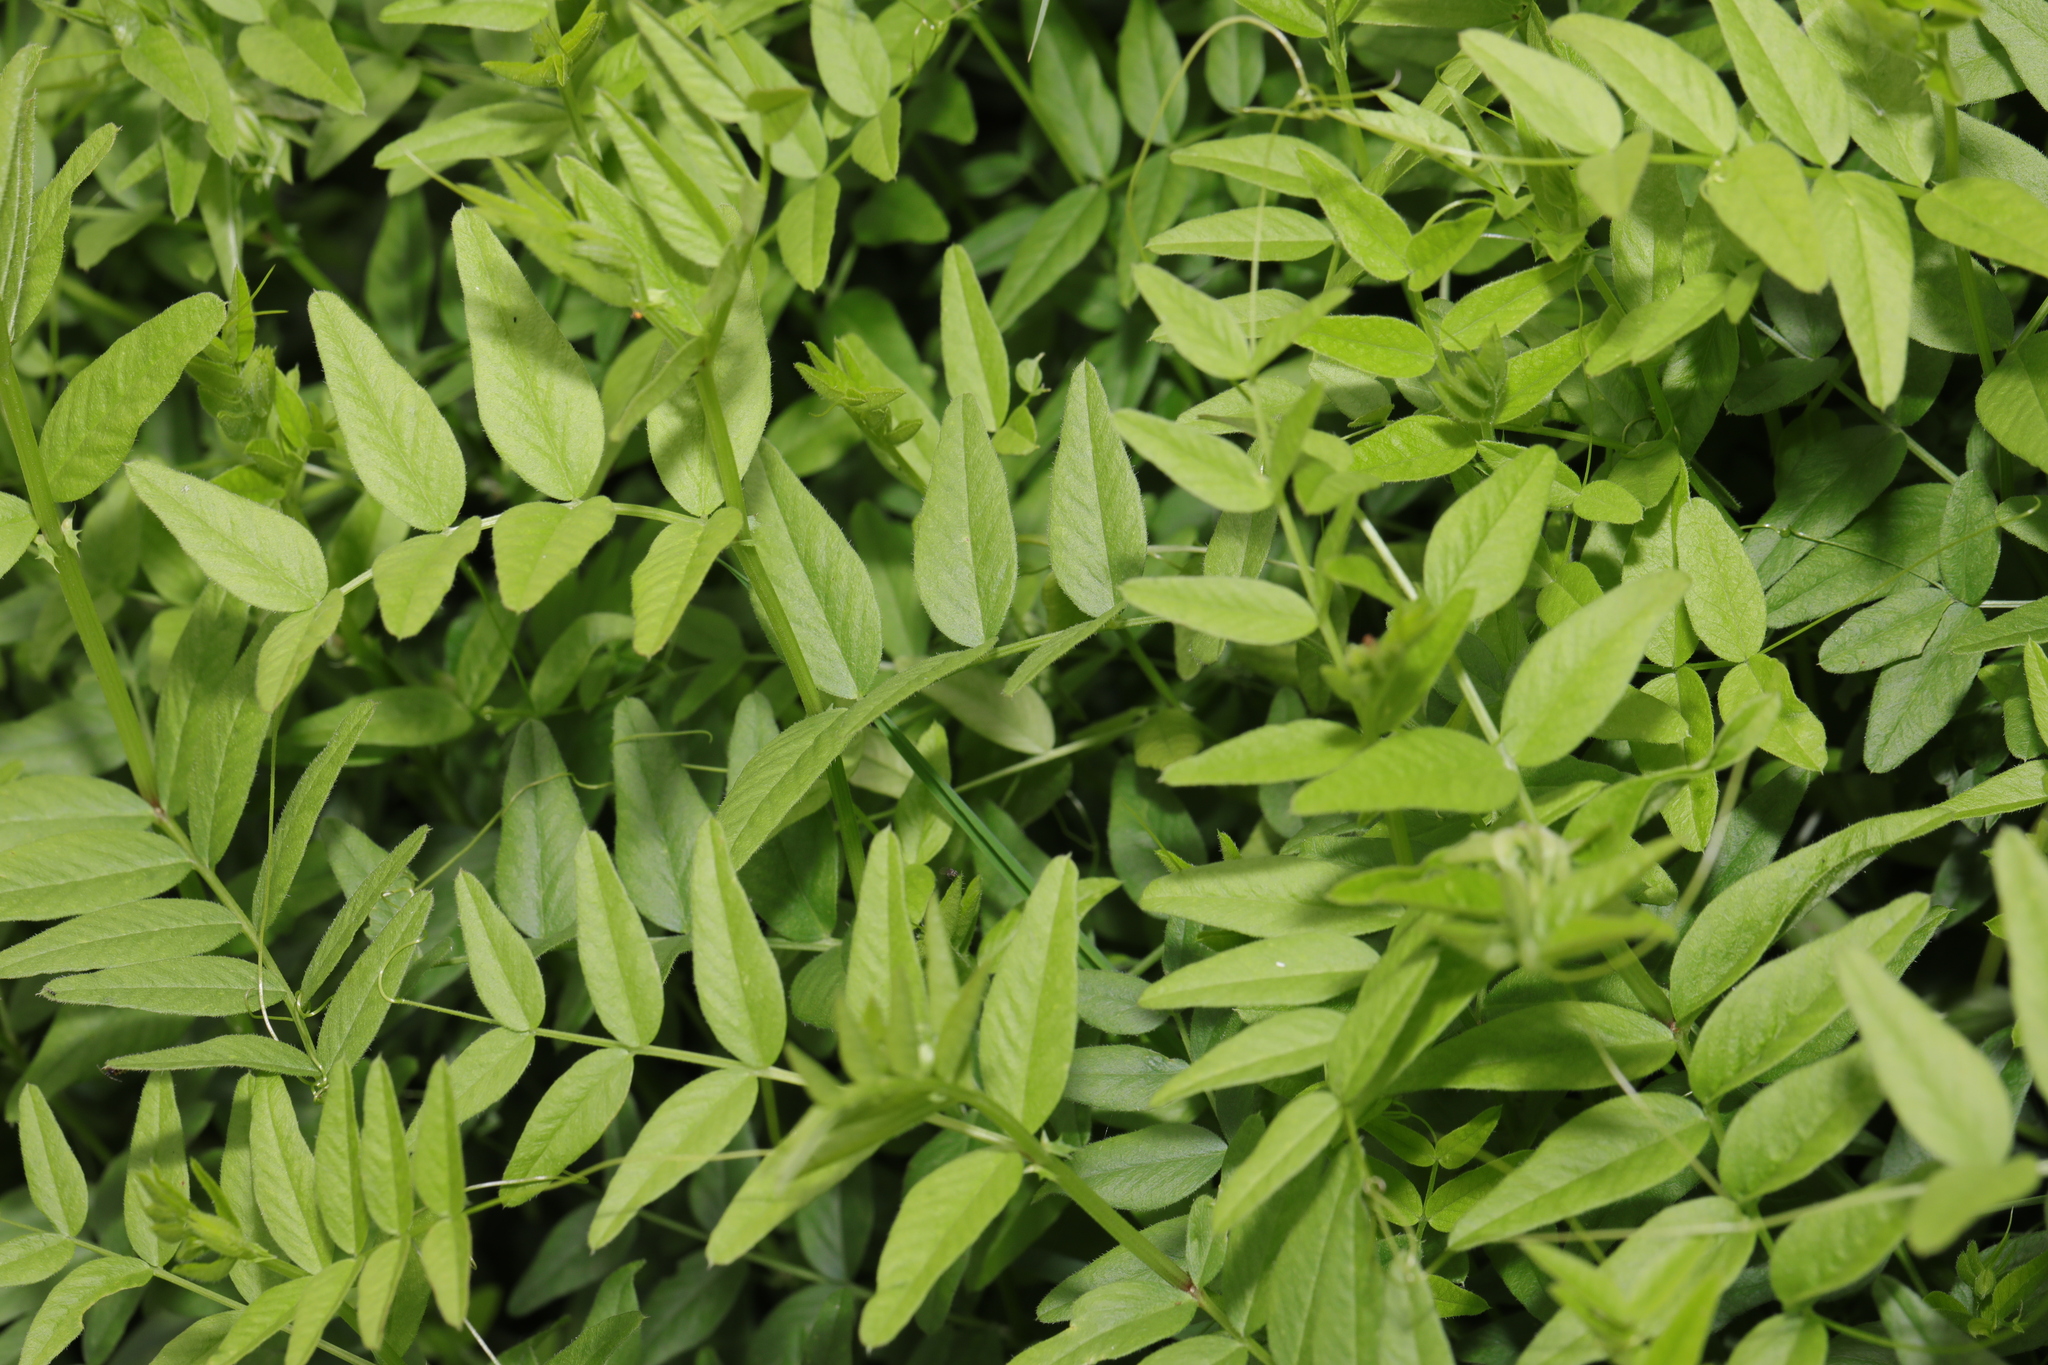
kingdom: Plantae
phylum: Tracheophyta
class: Magnoliopsida
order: Fabales
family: Fabaceae
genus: Vicia
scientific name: Vicia sepium
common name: Bush vetch
